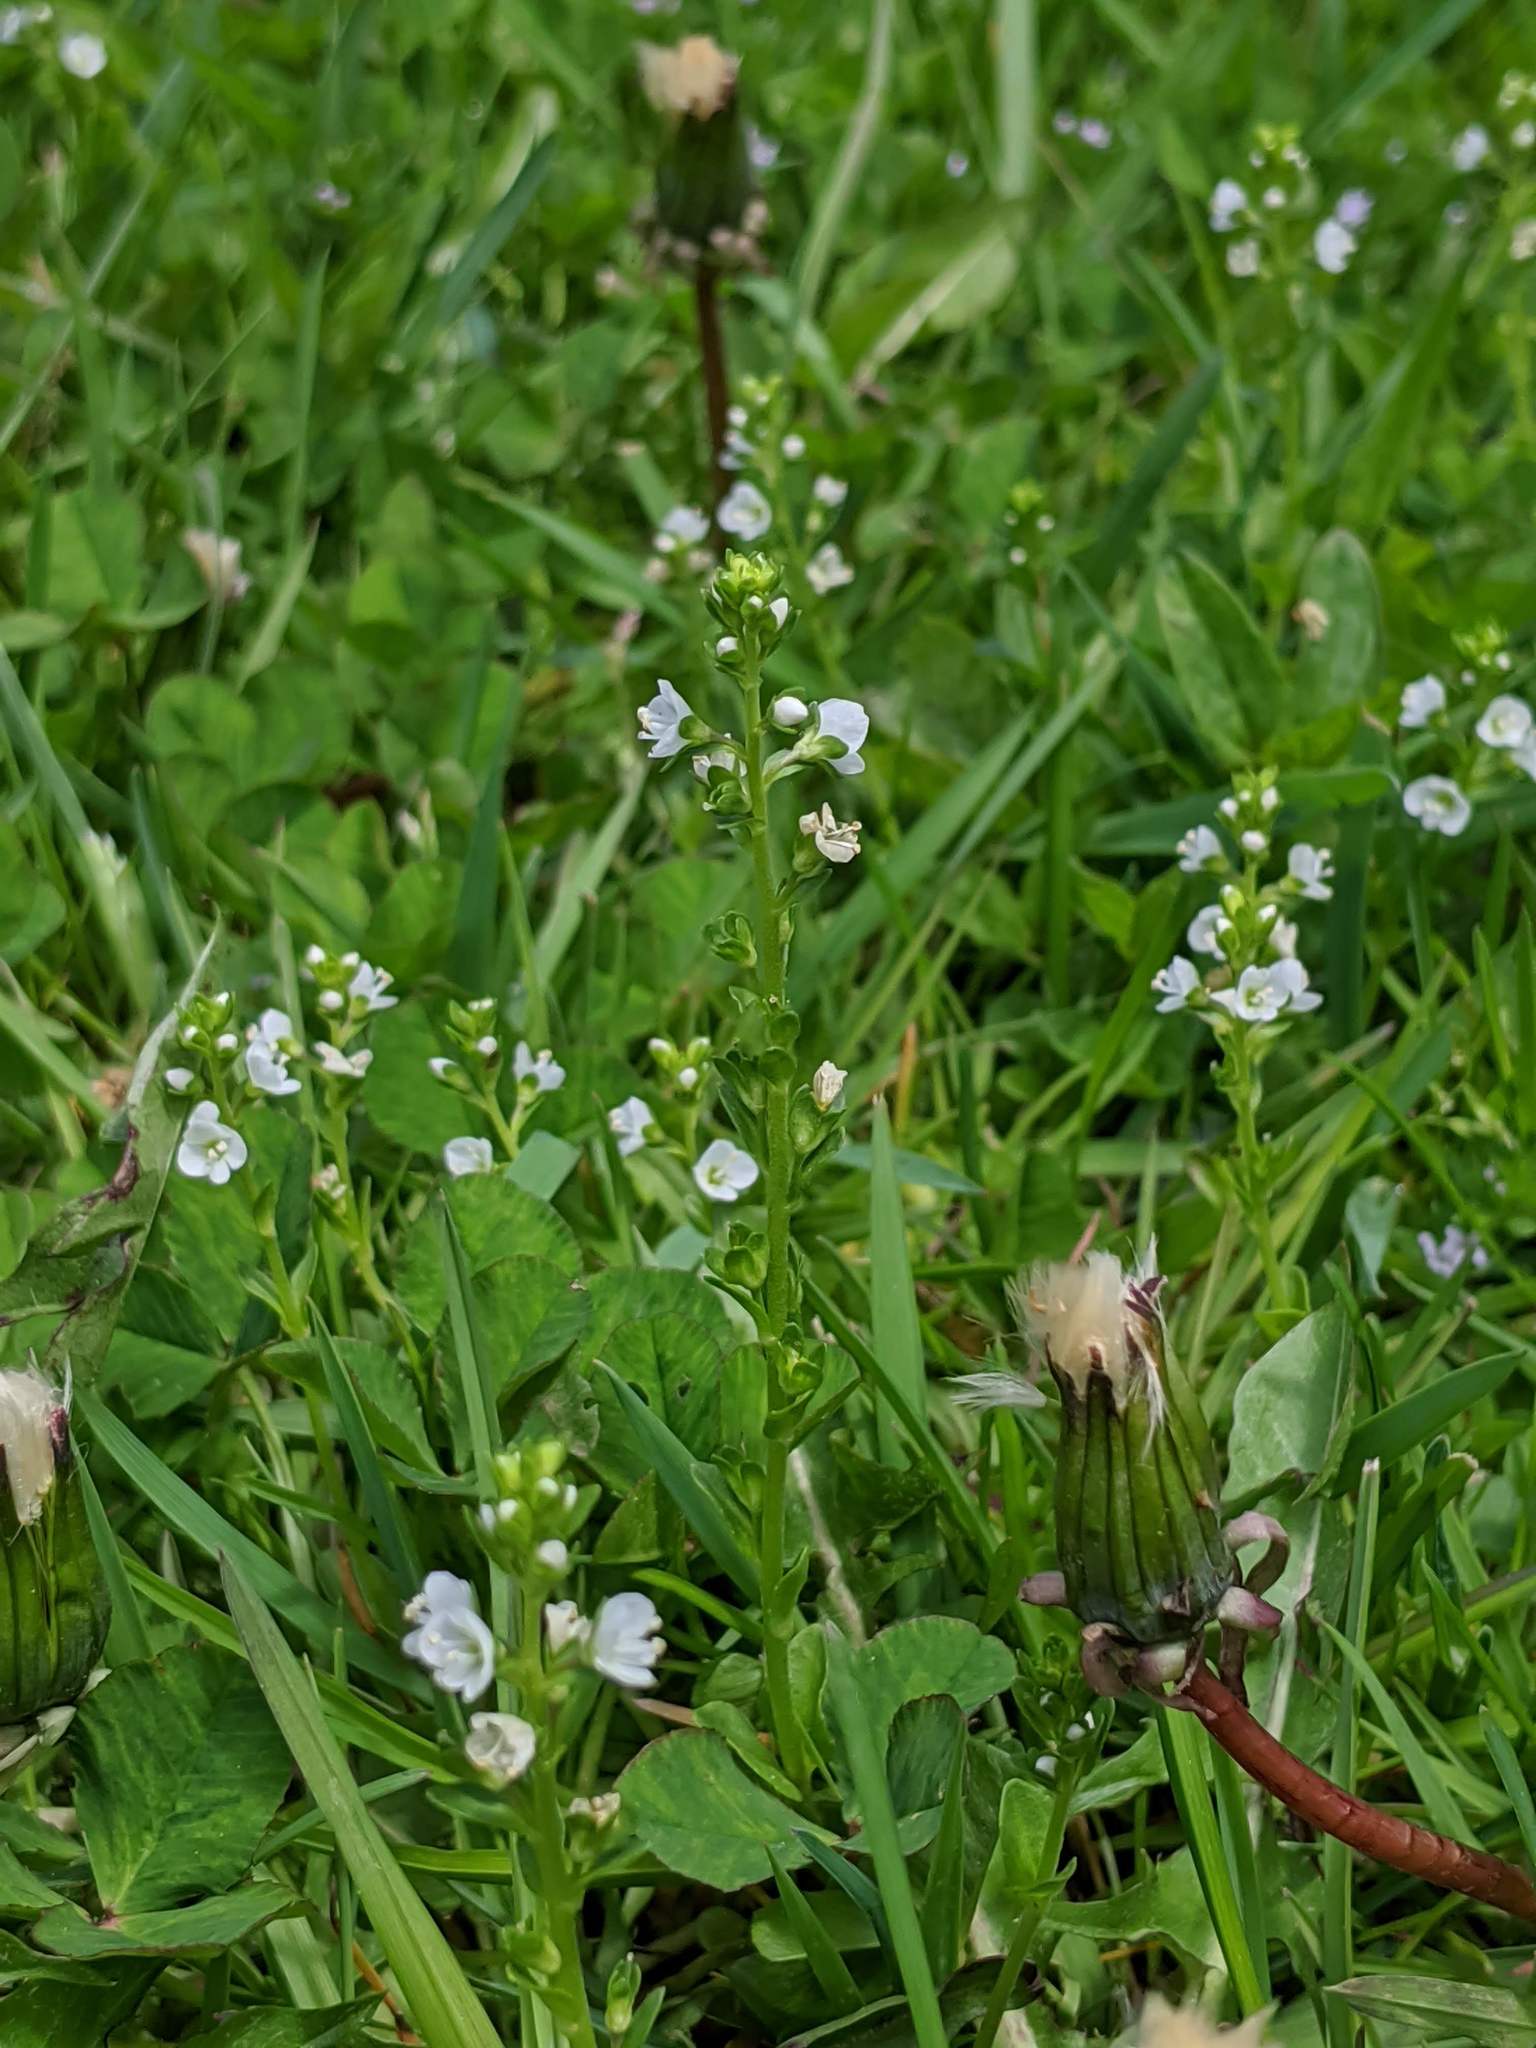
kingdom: Plantae
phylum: Tracheophyta
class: Magnoliopsida
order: Lamiales
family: Plantaginaceae
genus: Veronica
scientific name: Veronica serpyllifolia
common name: Thyme-leaved speedwell
